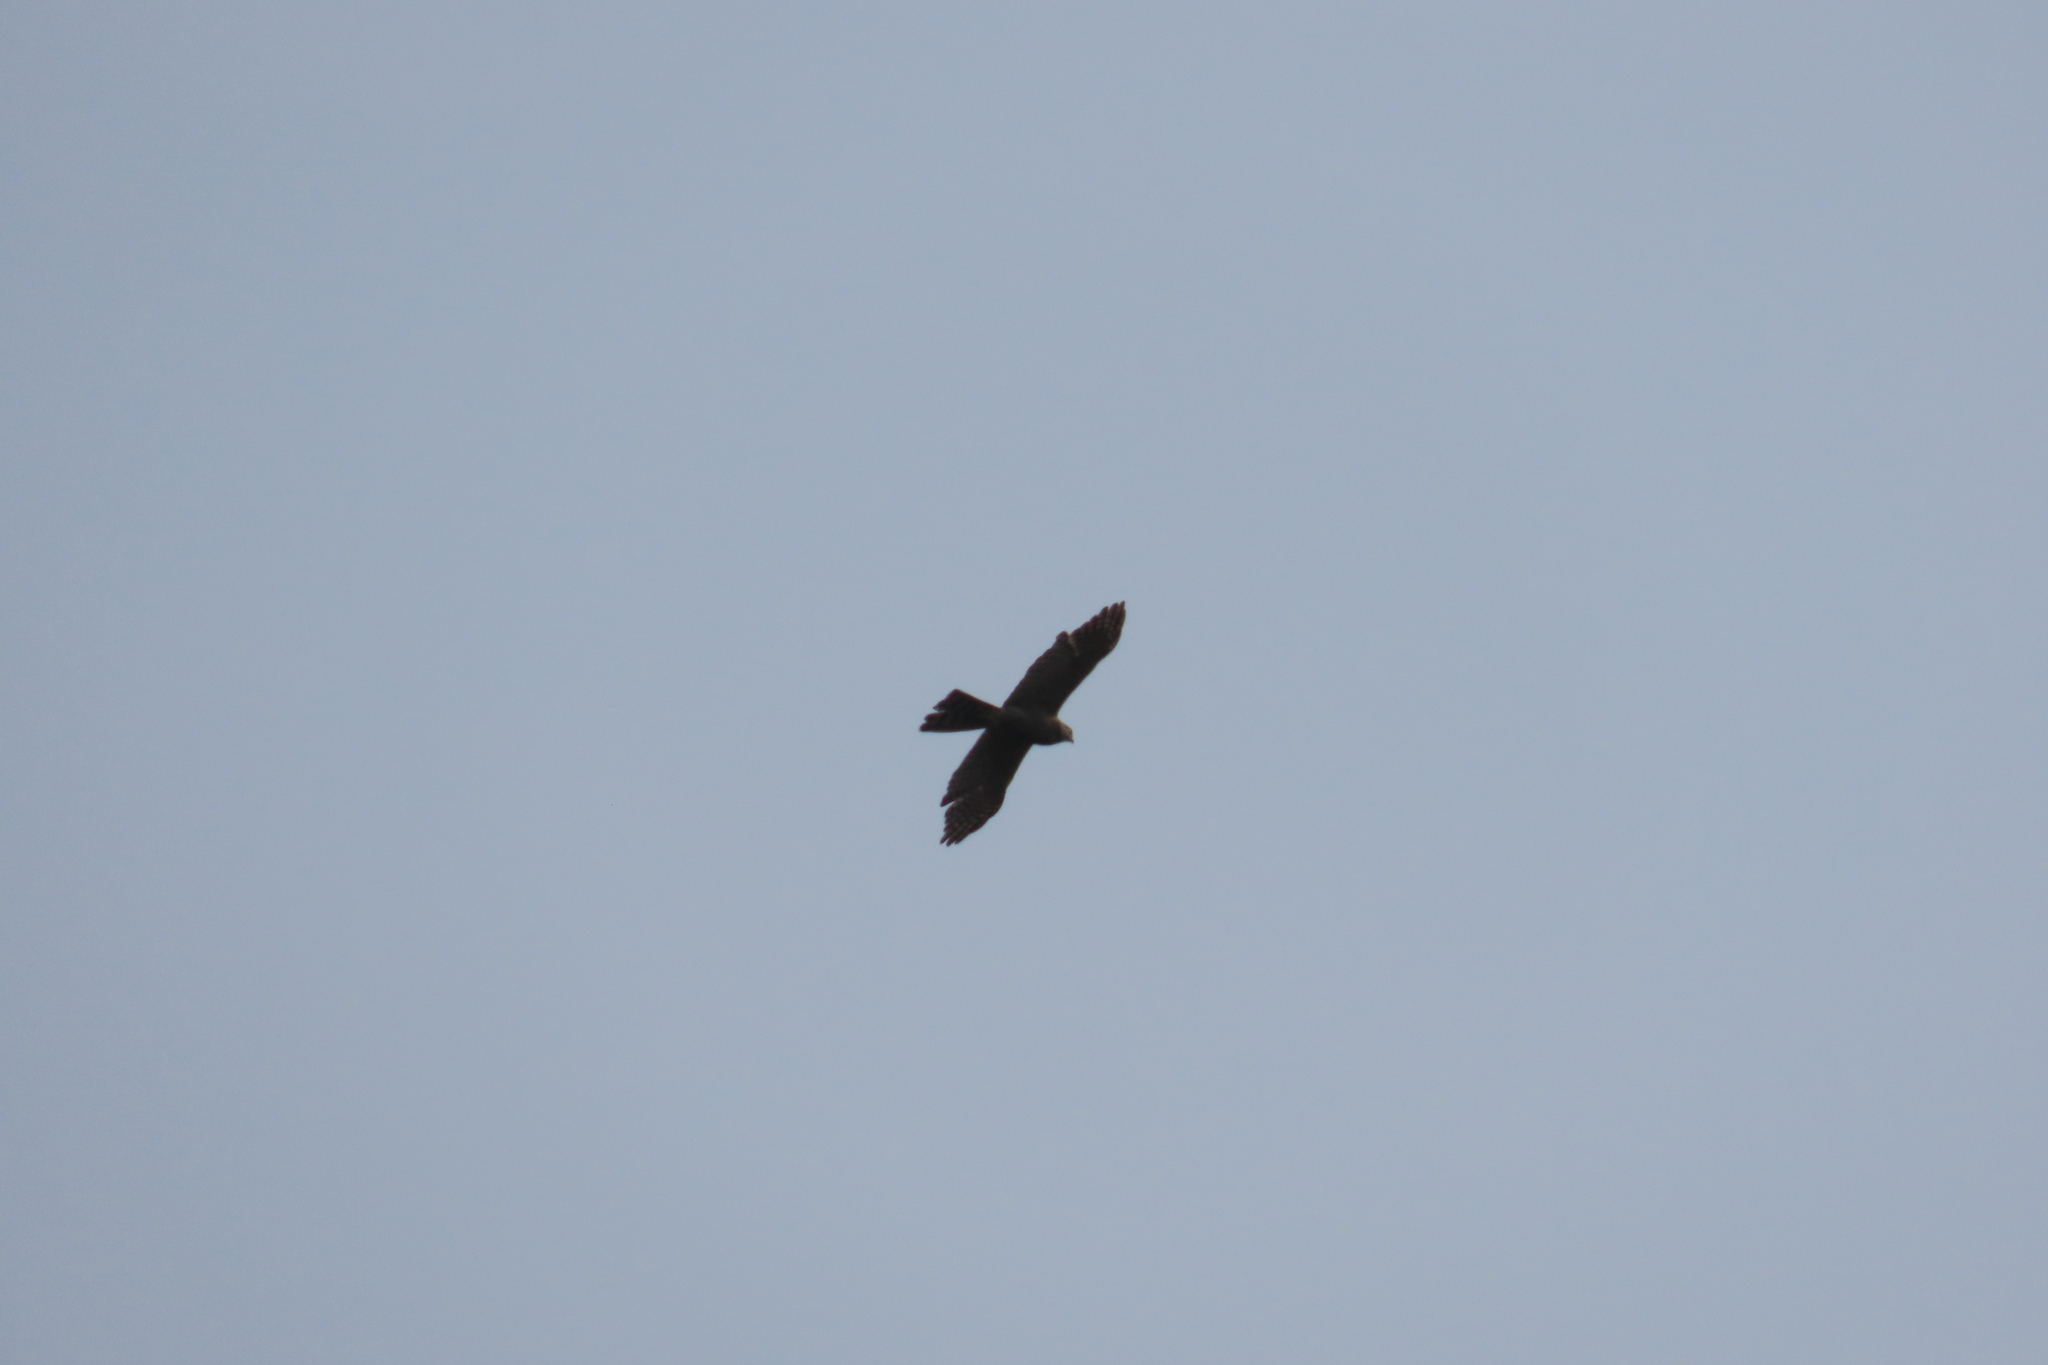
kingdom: Animalia
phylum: Chordata
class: Aves
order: Accipitriformes
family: Accipitridae
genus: Accipiter
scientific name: Accipiter badius
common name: Shikra
